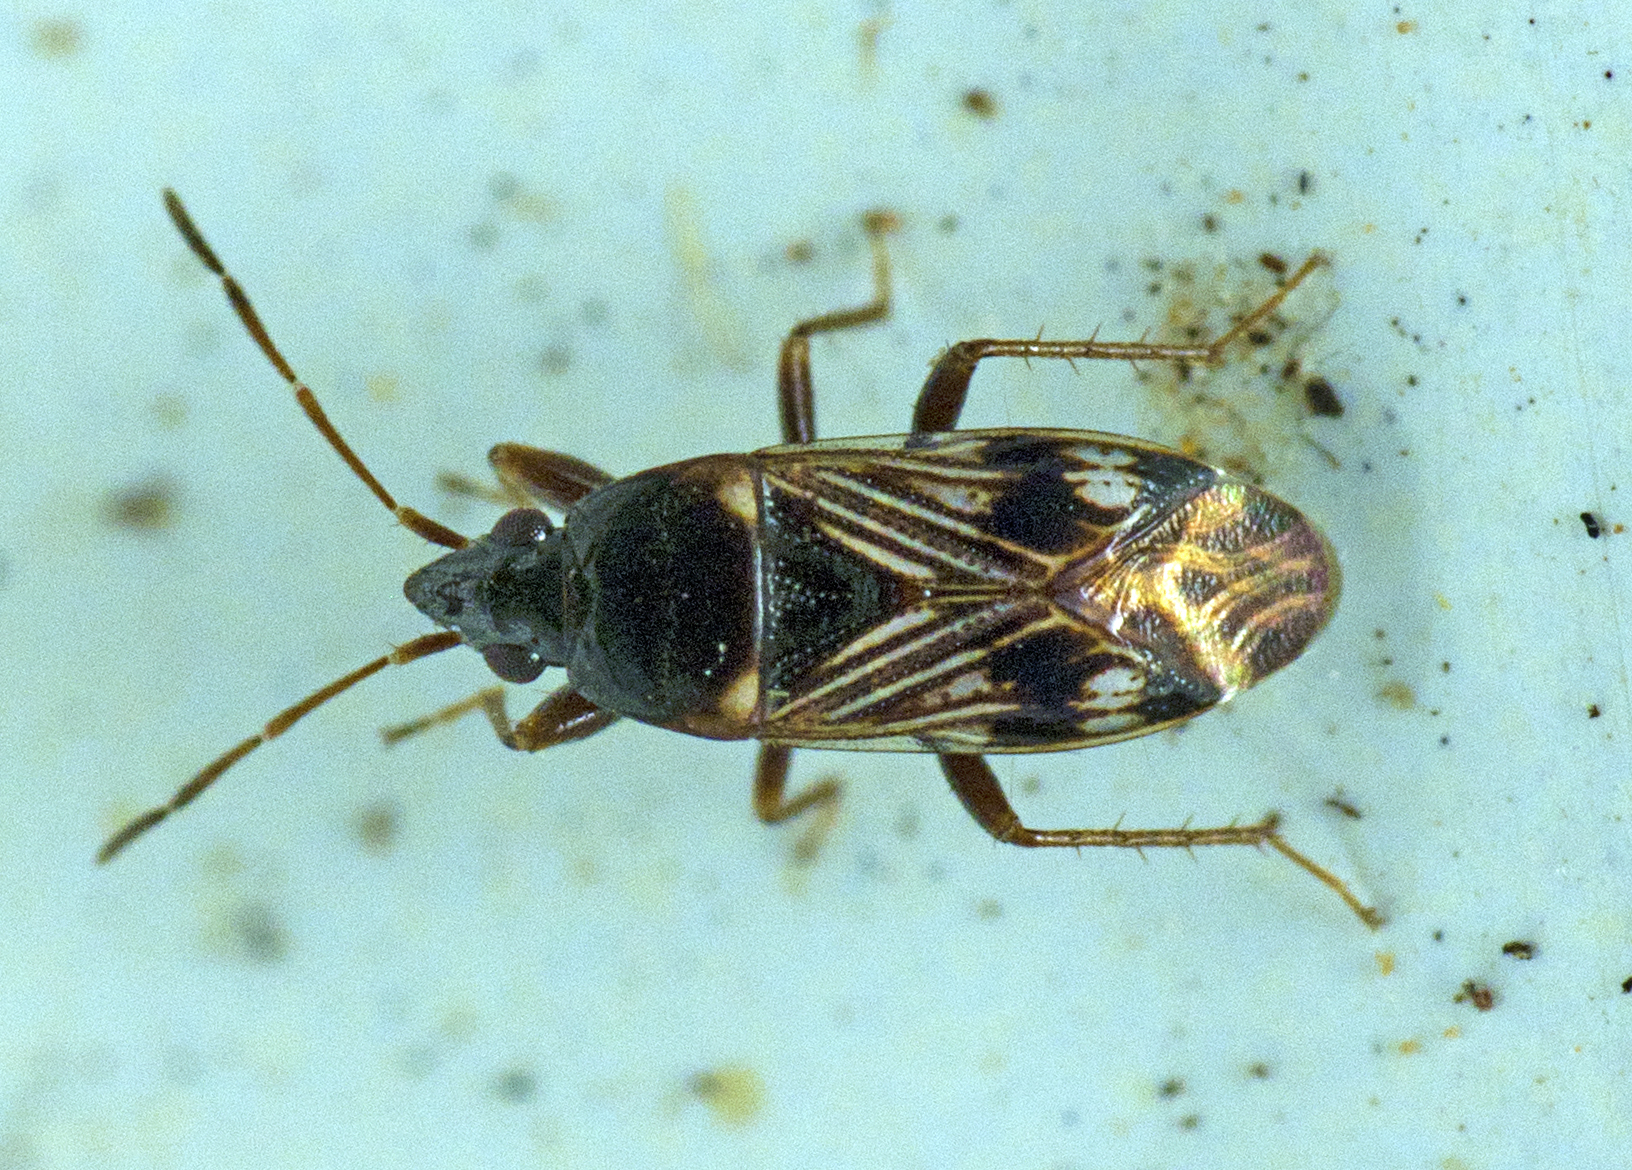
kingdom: Animalia
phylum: Arthropoda
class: Insecta
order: Hemiptera
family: Rhyparochromidae
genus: Paramyocara
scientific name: Paramyocara iridescens
